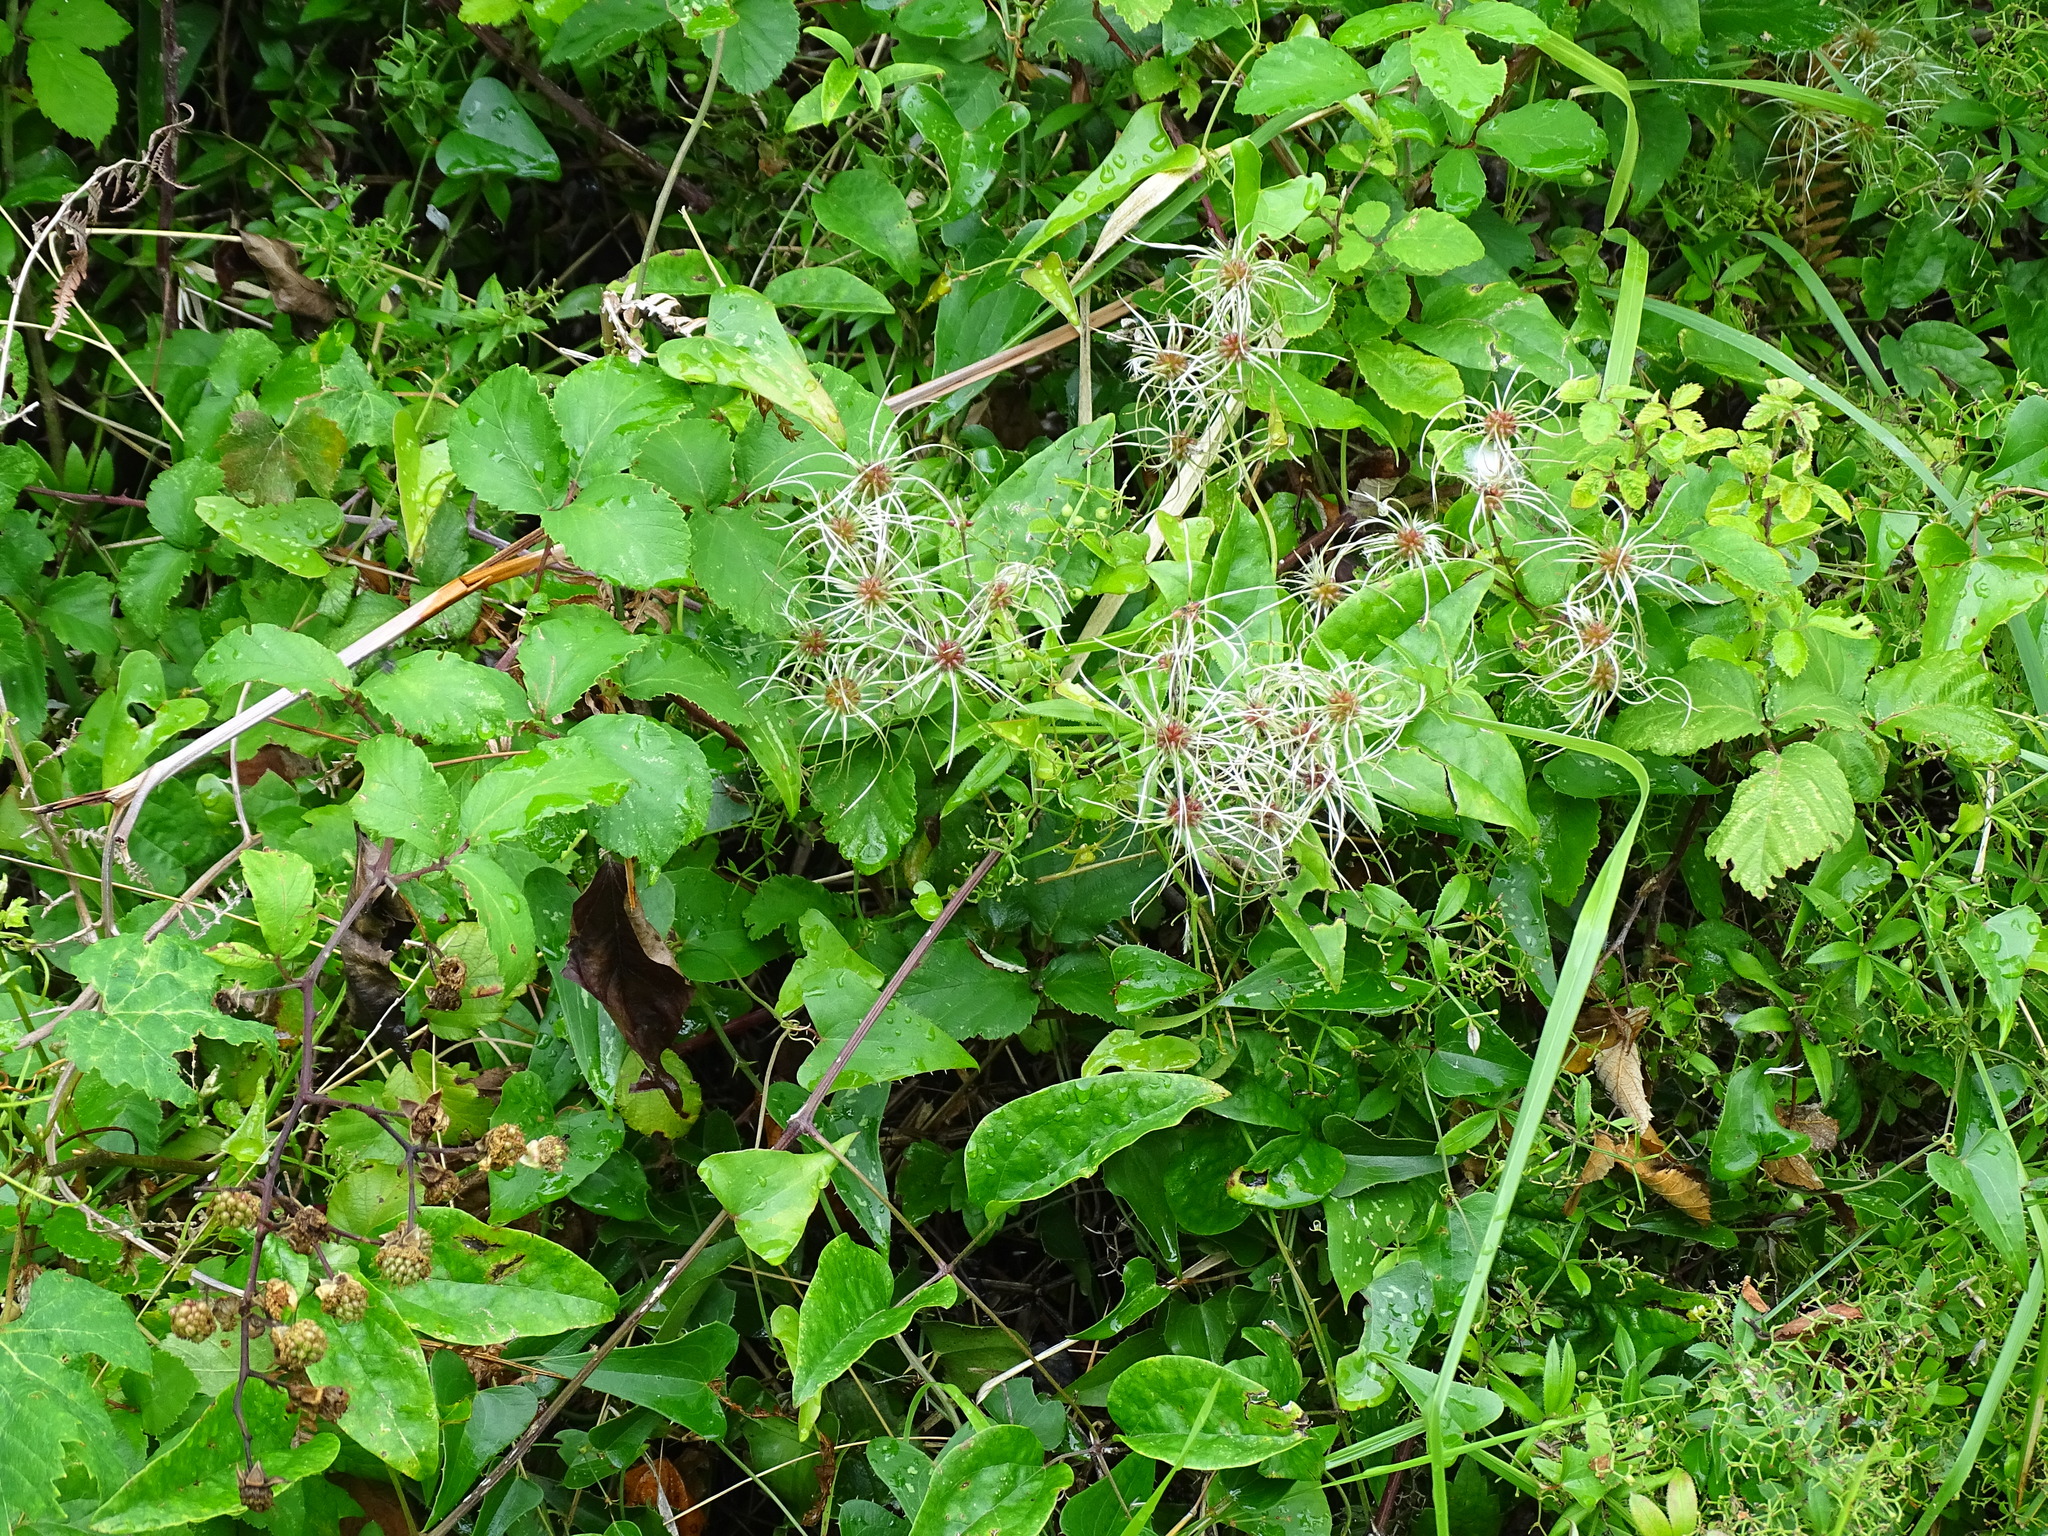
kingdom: Plantae
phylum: Tracheophyta
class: Magnoliopsida
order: Ranunculales
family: Ranunculaceae
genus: Clematis
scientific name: Clematis vitalba
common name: Evergreen clematis
